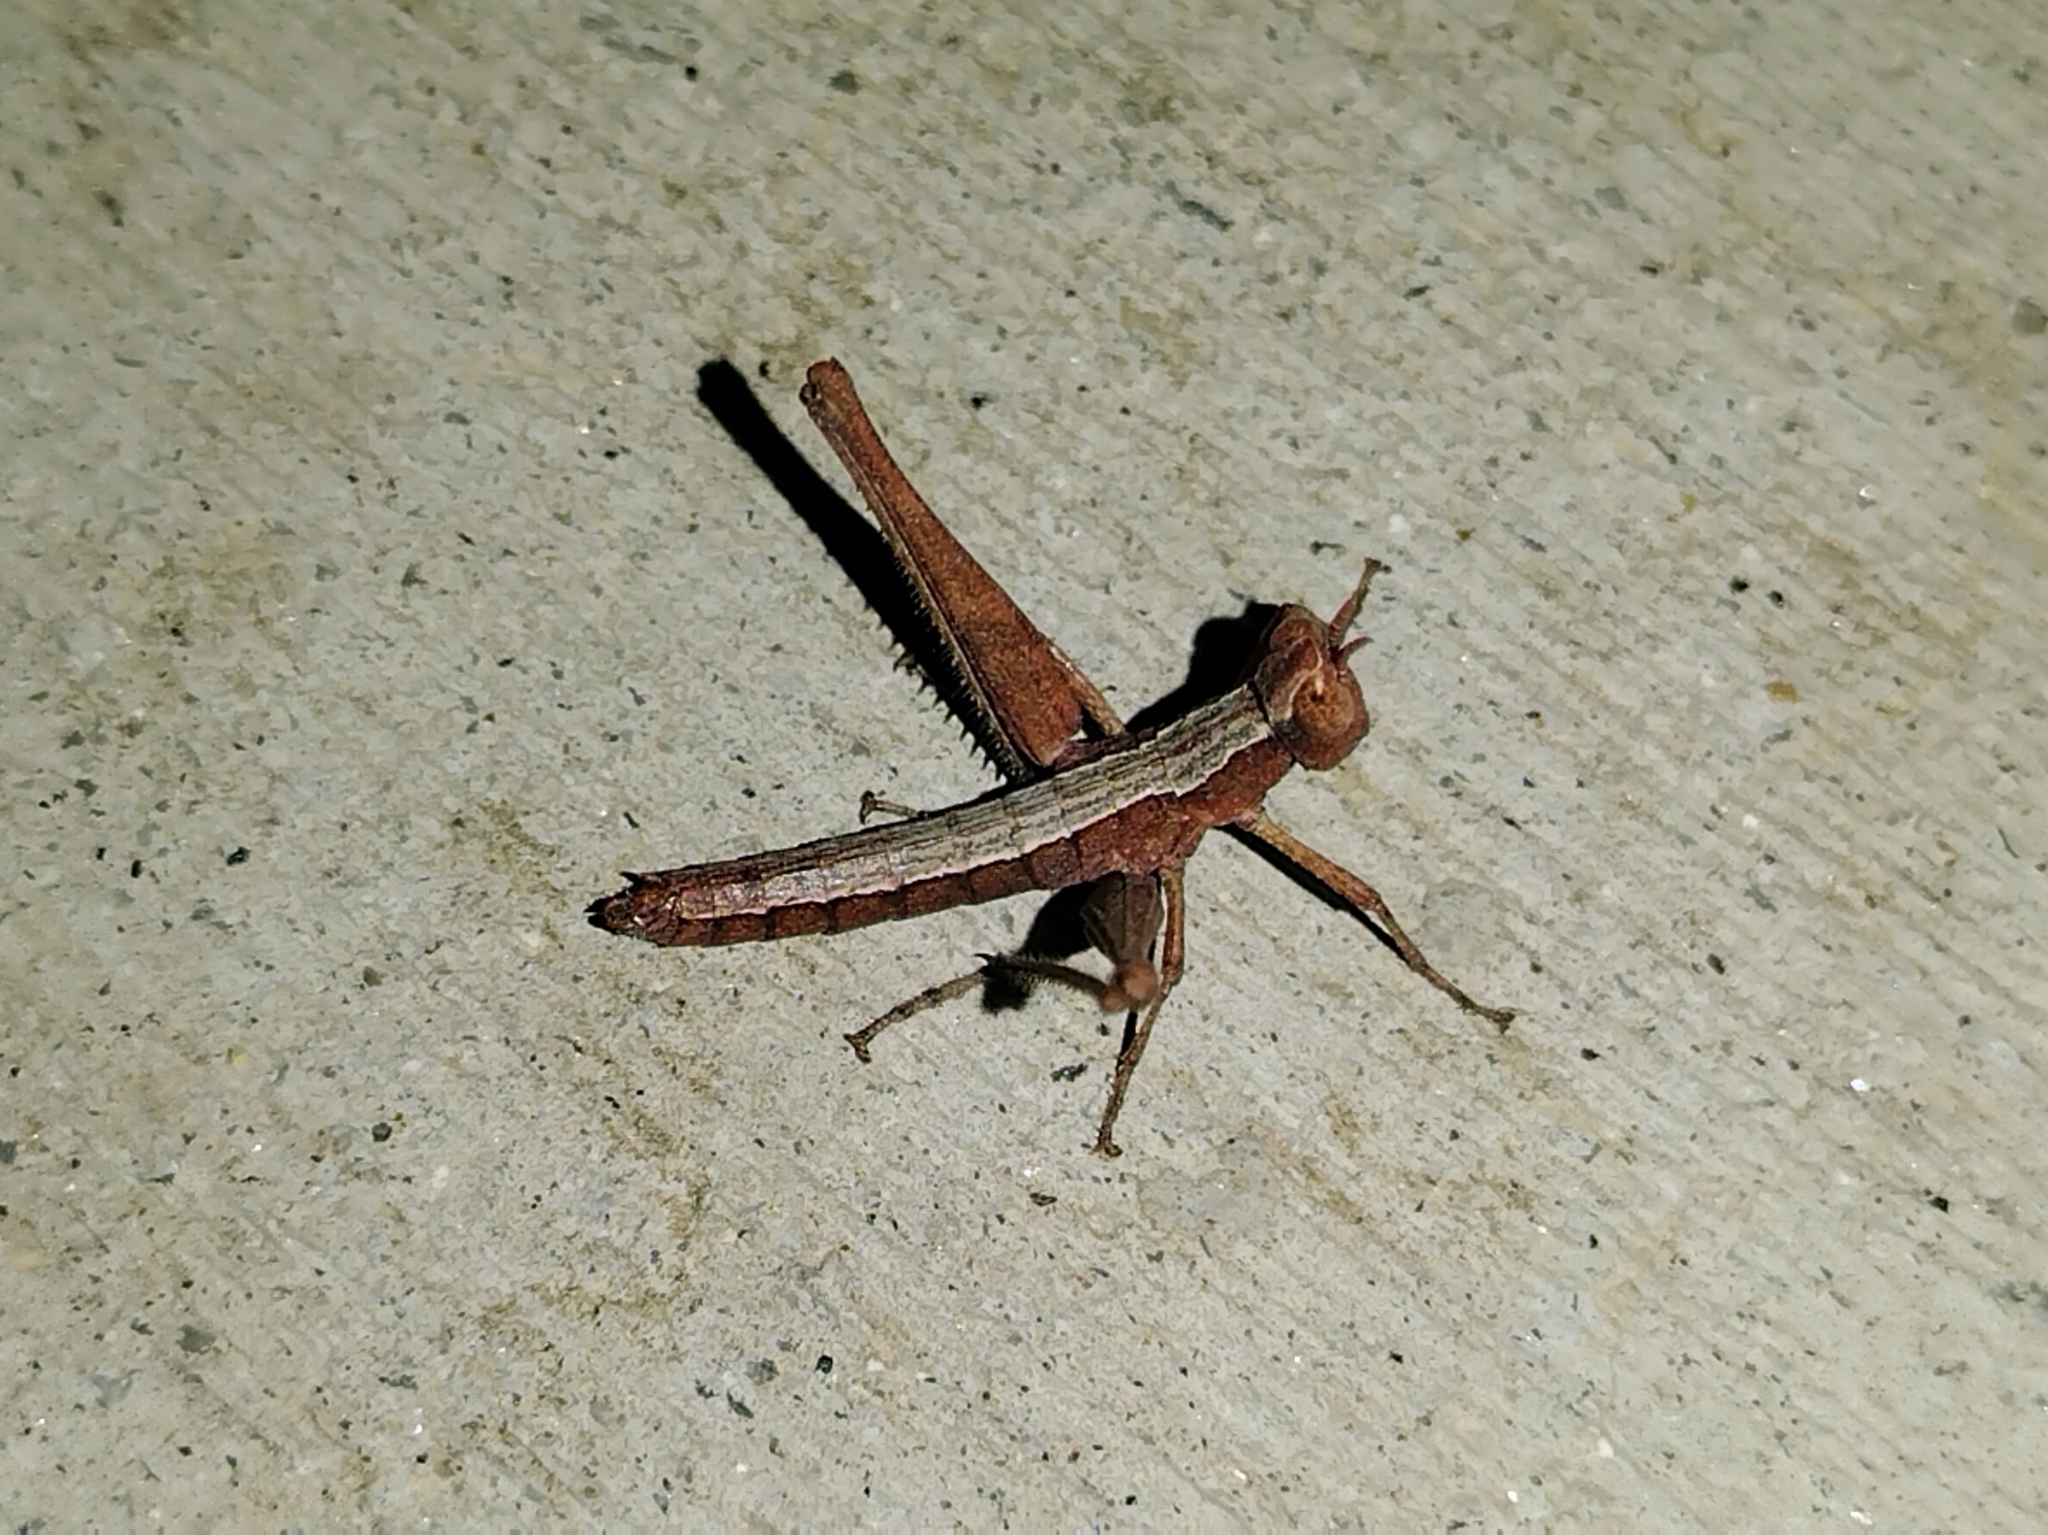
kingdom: Animalia
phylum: Arthropoda
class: Insecta
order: Orthoptera
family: Eumastacidae
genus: Morsea
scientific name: Morsea californica
